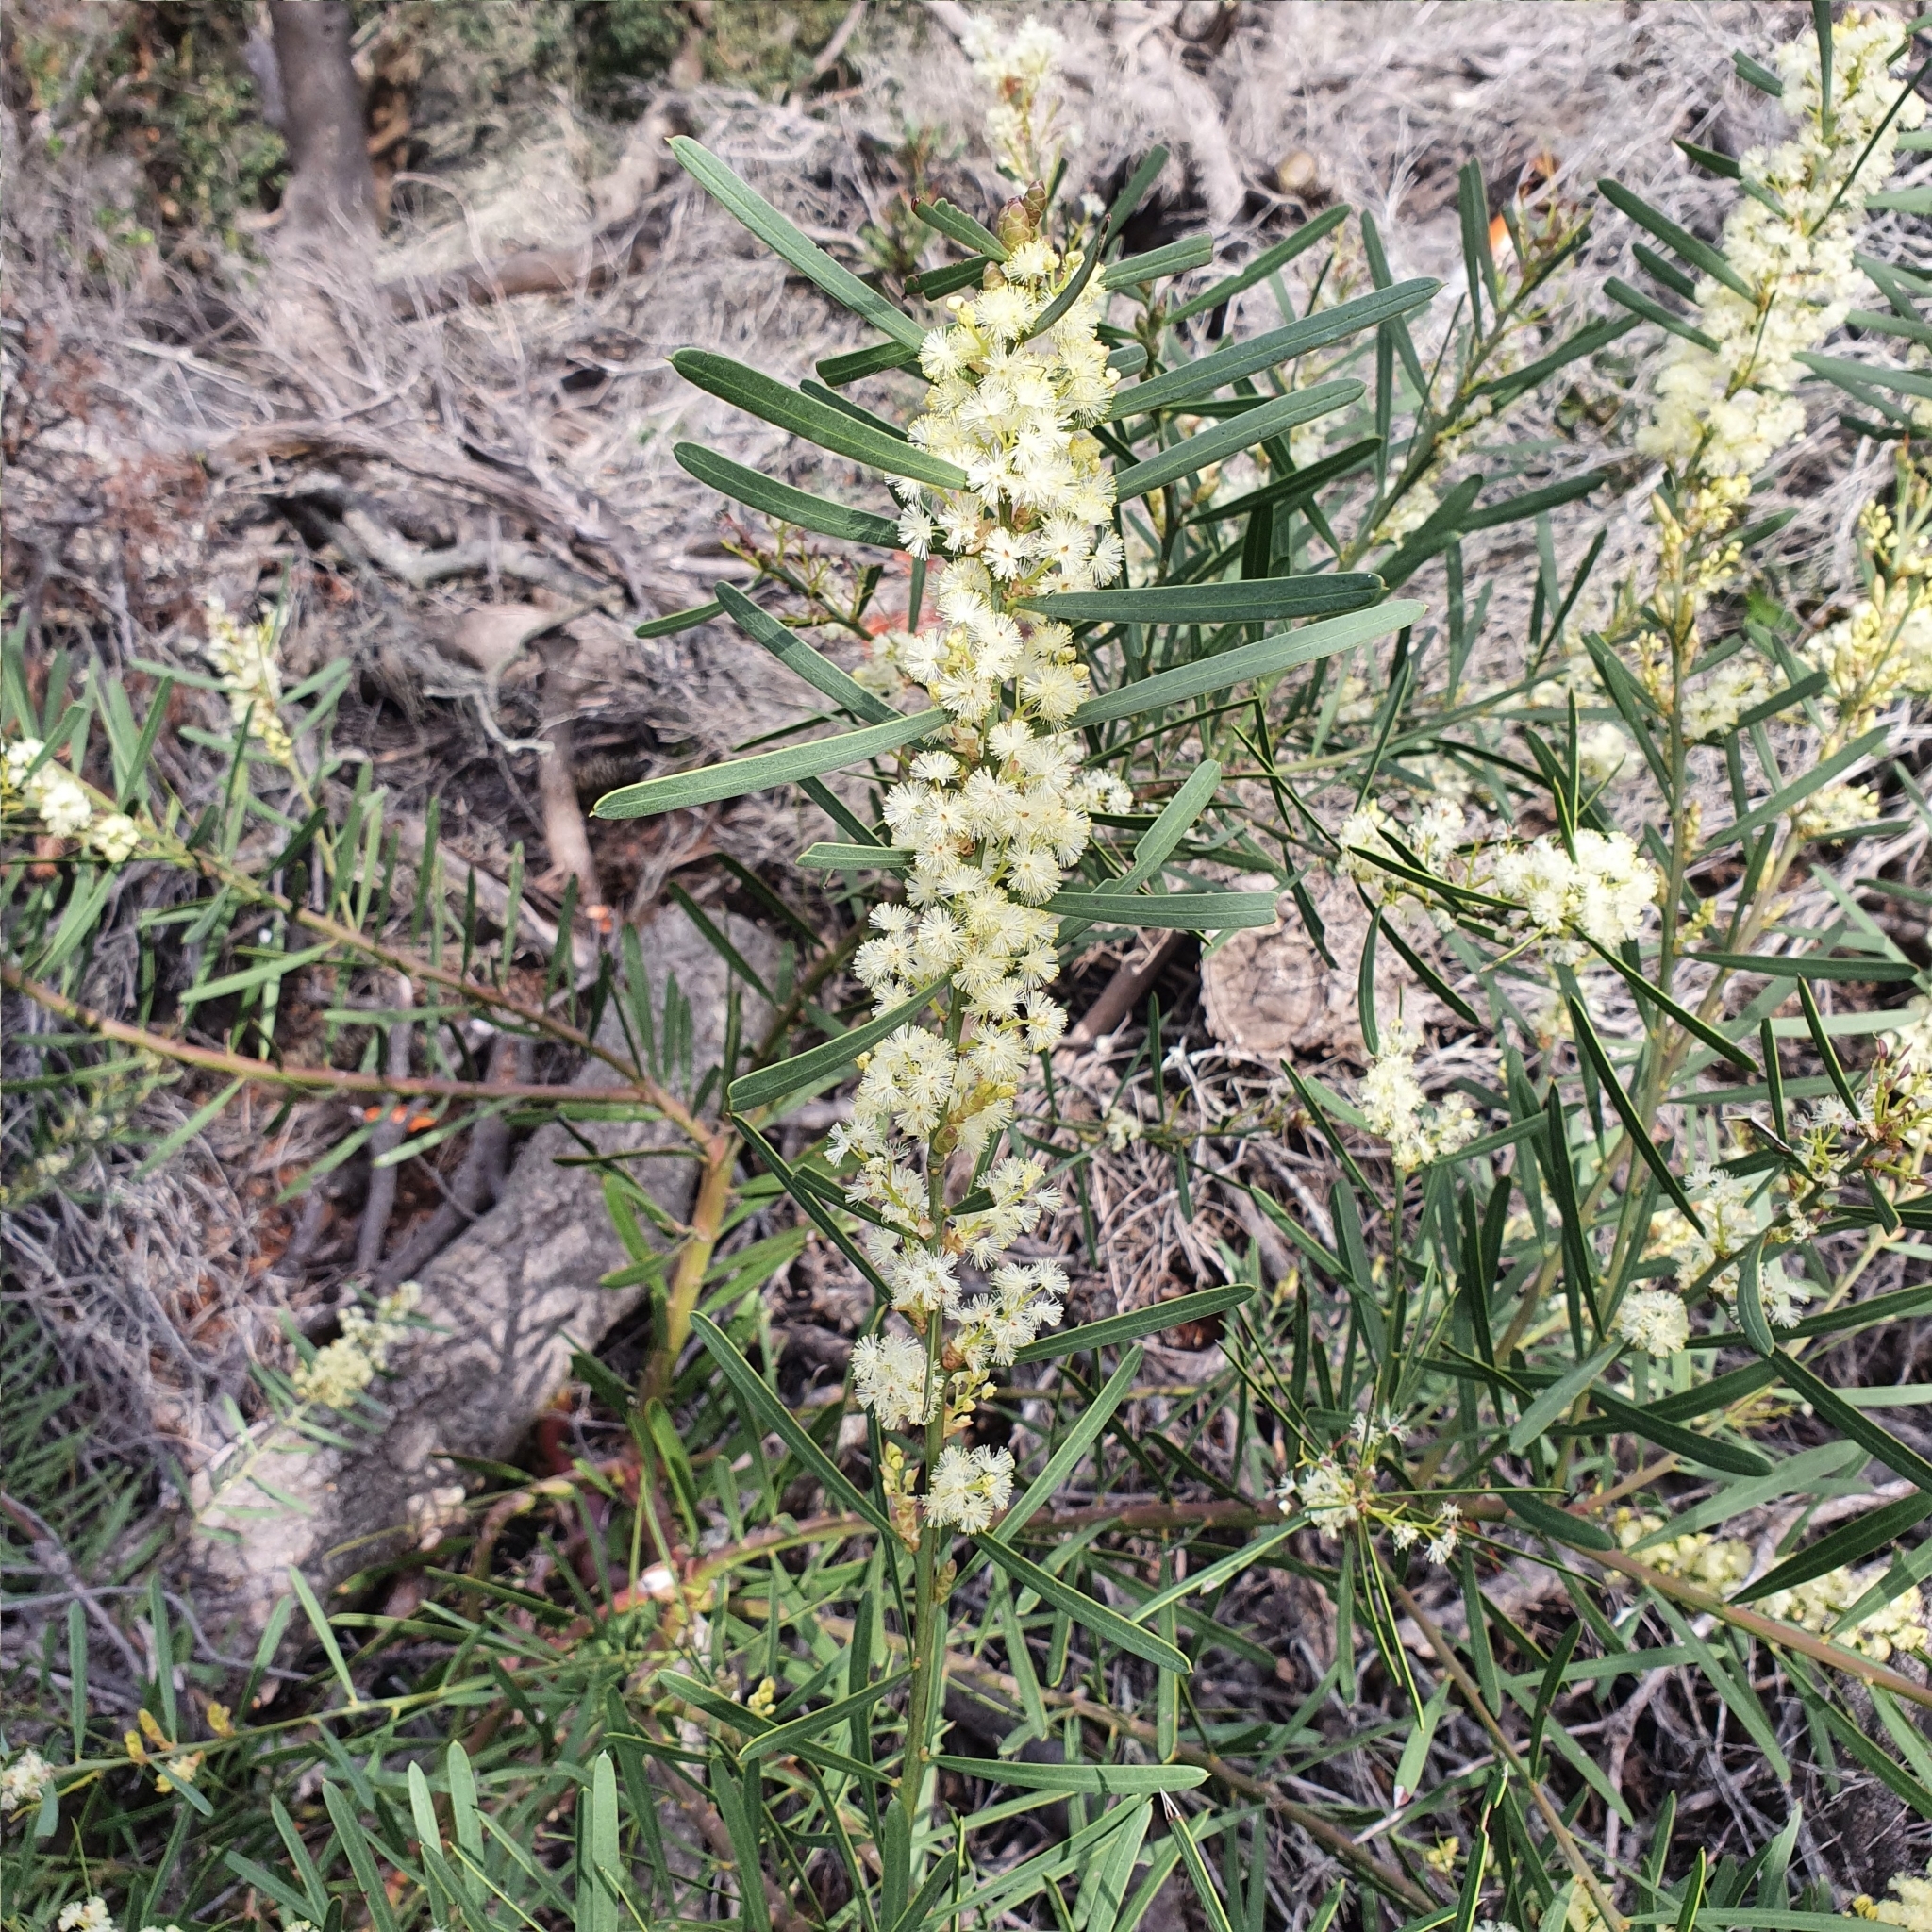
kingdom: Plantae
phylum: Tracheophyta
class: Magnoliopsida
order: Fabales
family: Fabaceae
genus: Acacia
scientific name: Acacia suaveolens
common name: Sweet acacia
